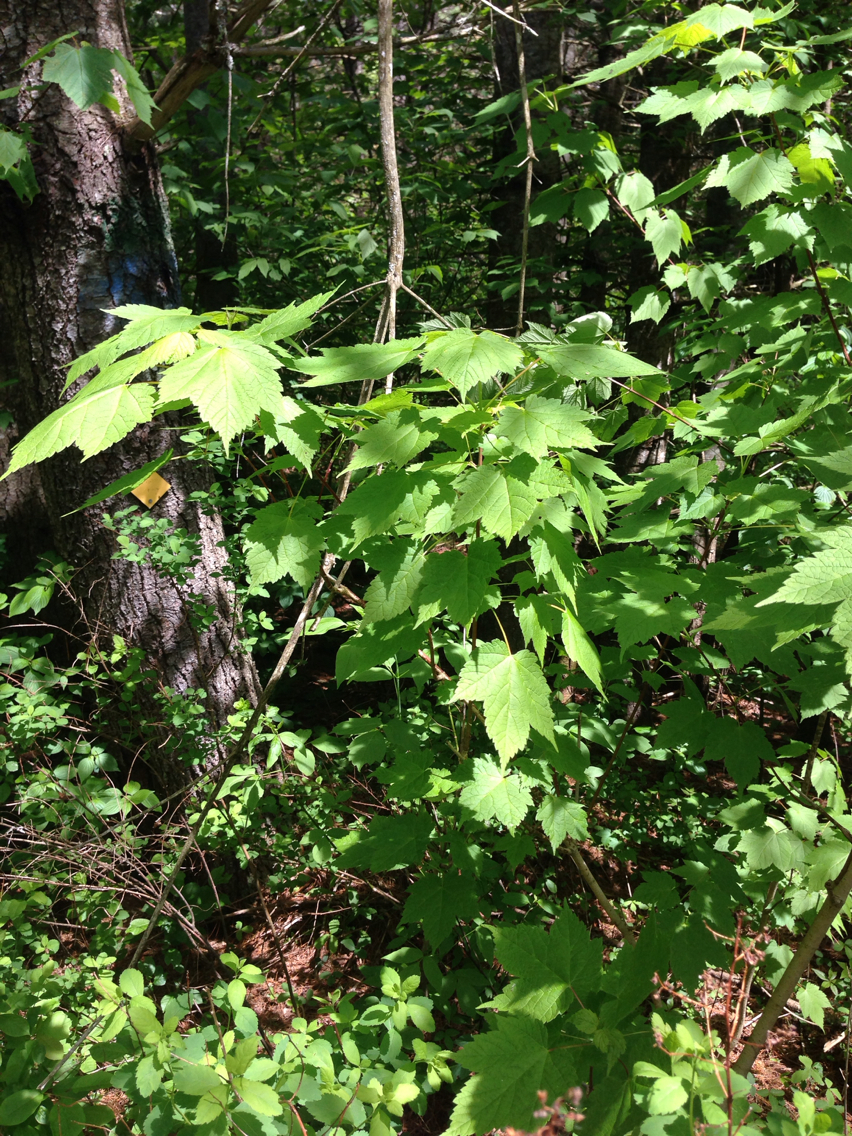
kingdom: Plantae
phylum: Tracheophyta
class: Magnoliopsida
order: Sapindales
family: Sapindaceae
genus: Acer
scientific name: Acer spicatum
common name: Mountain maple
